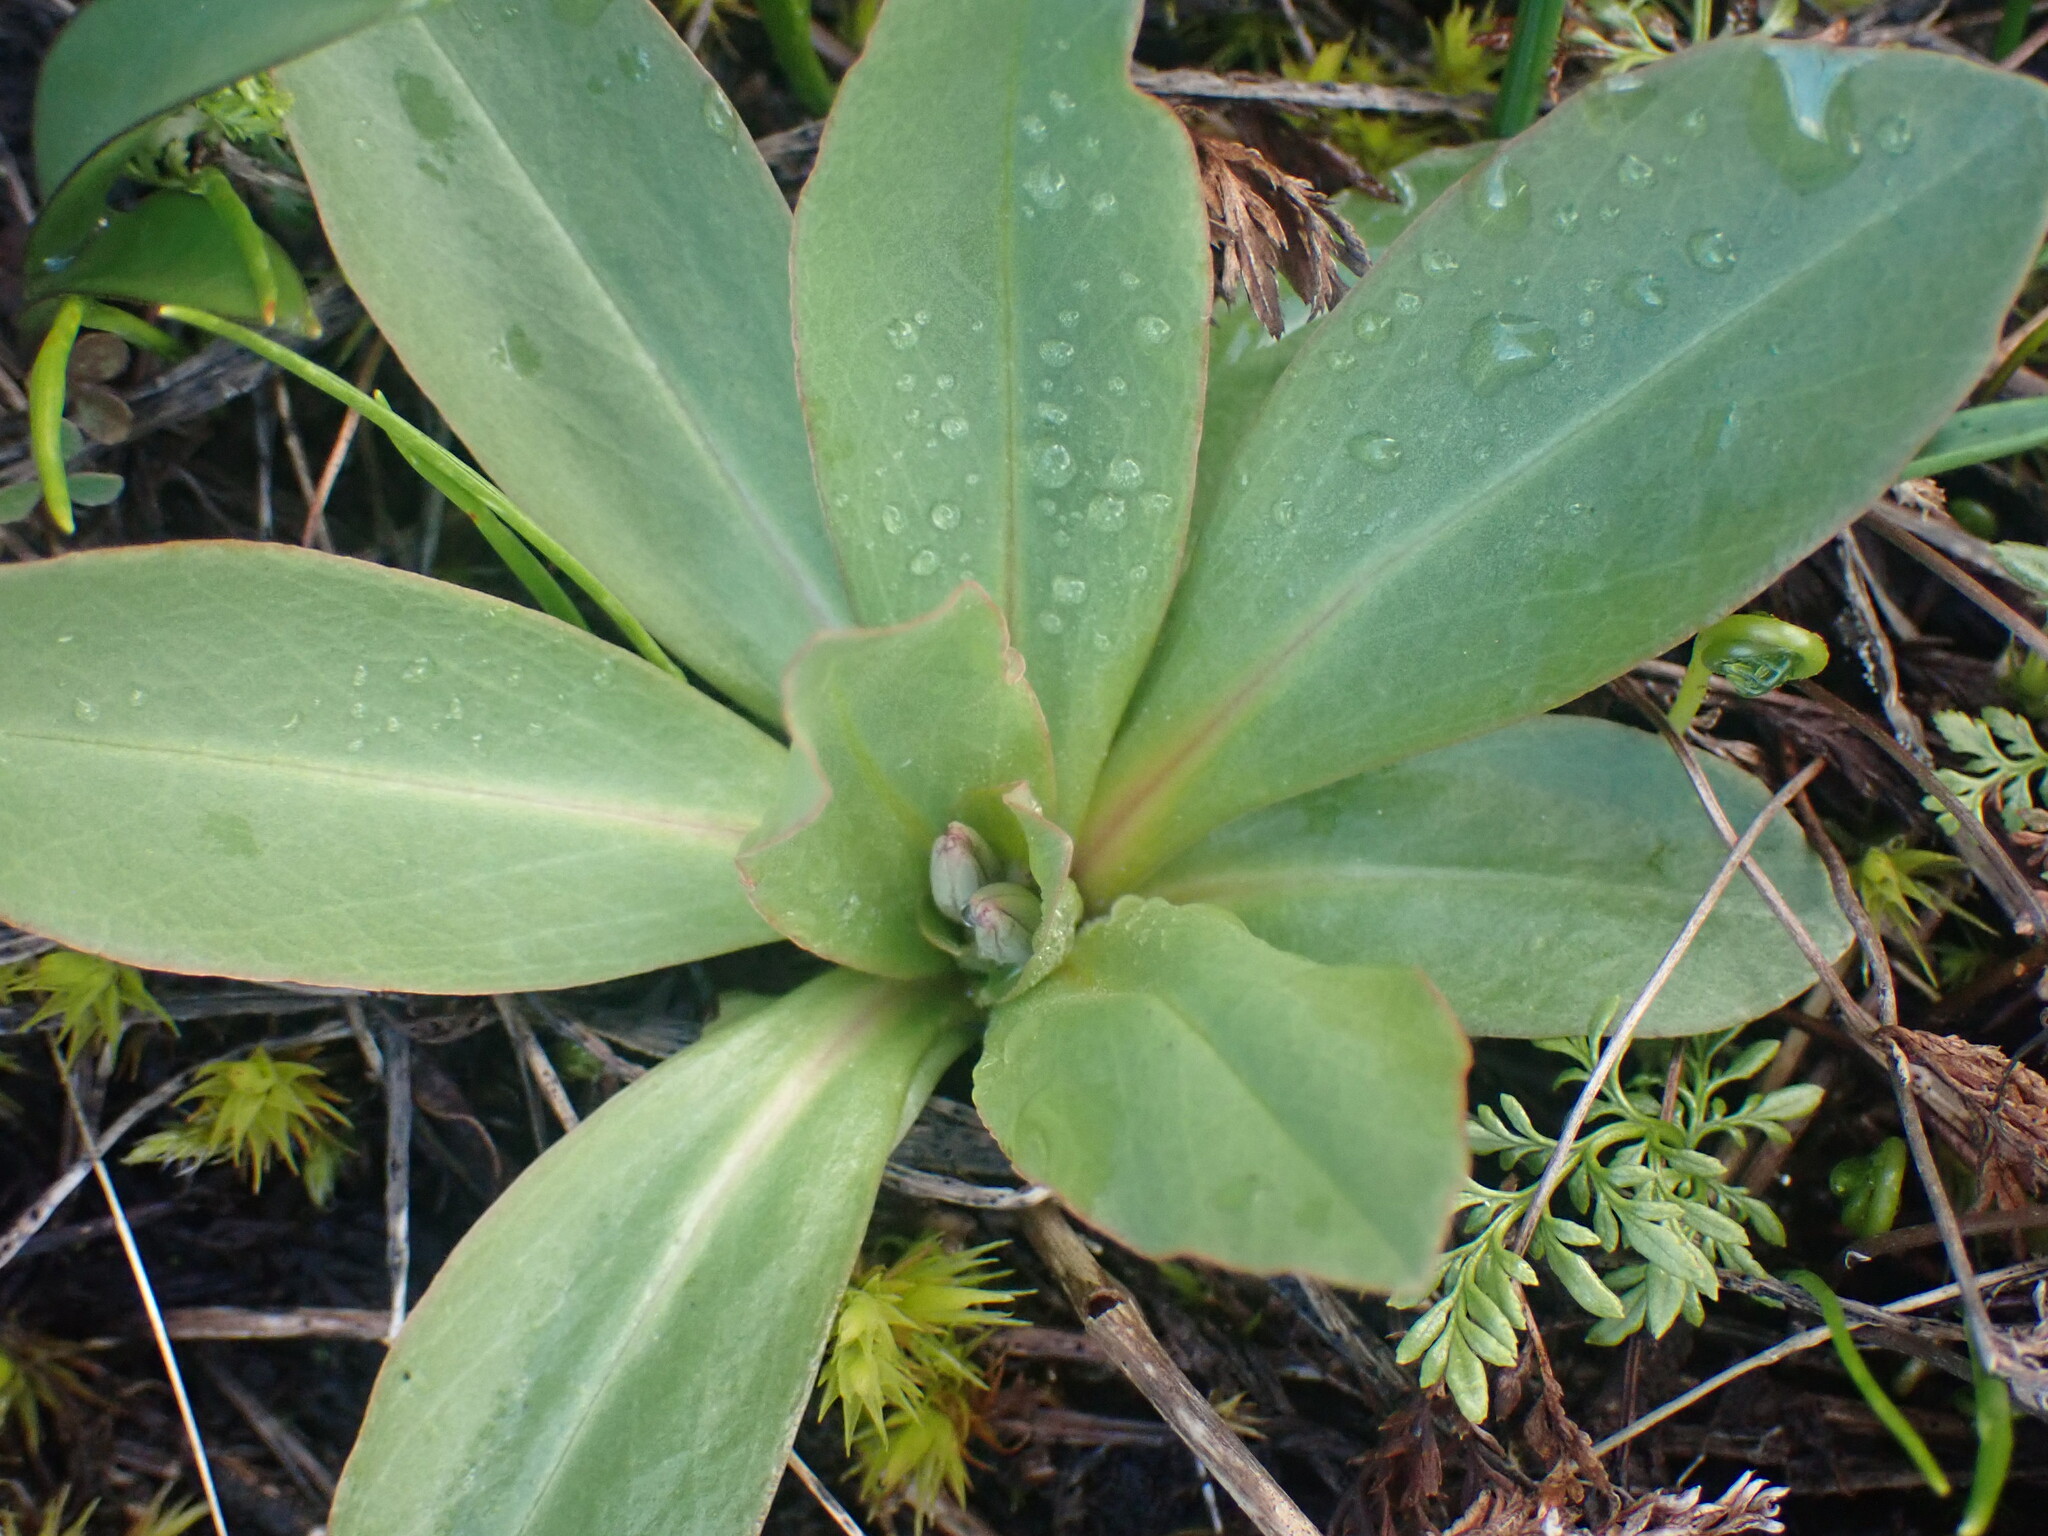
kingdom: Plantae
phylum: Tracheophyta
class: Magnoliopsida
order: Ericales
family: Primulaceae
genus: Dodecatheon
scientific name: Dodecatheon pulchellum
